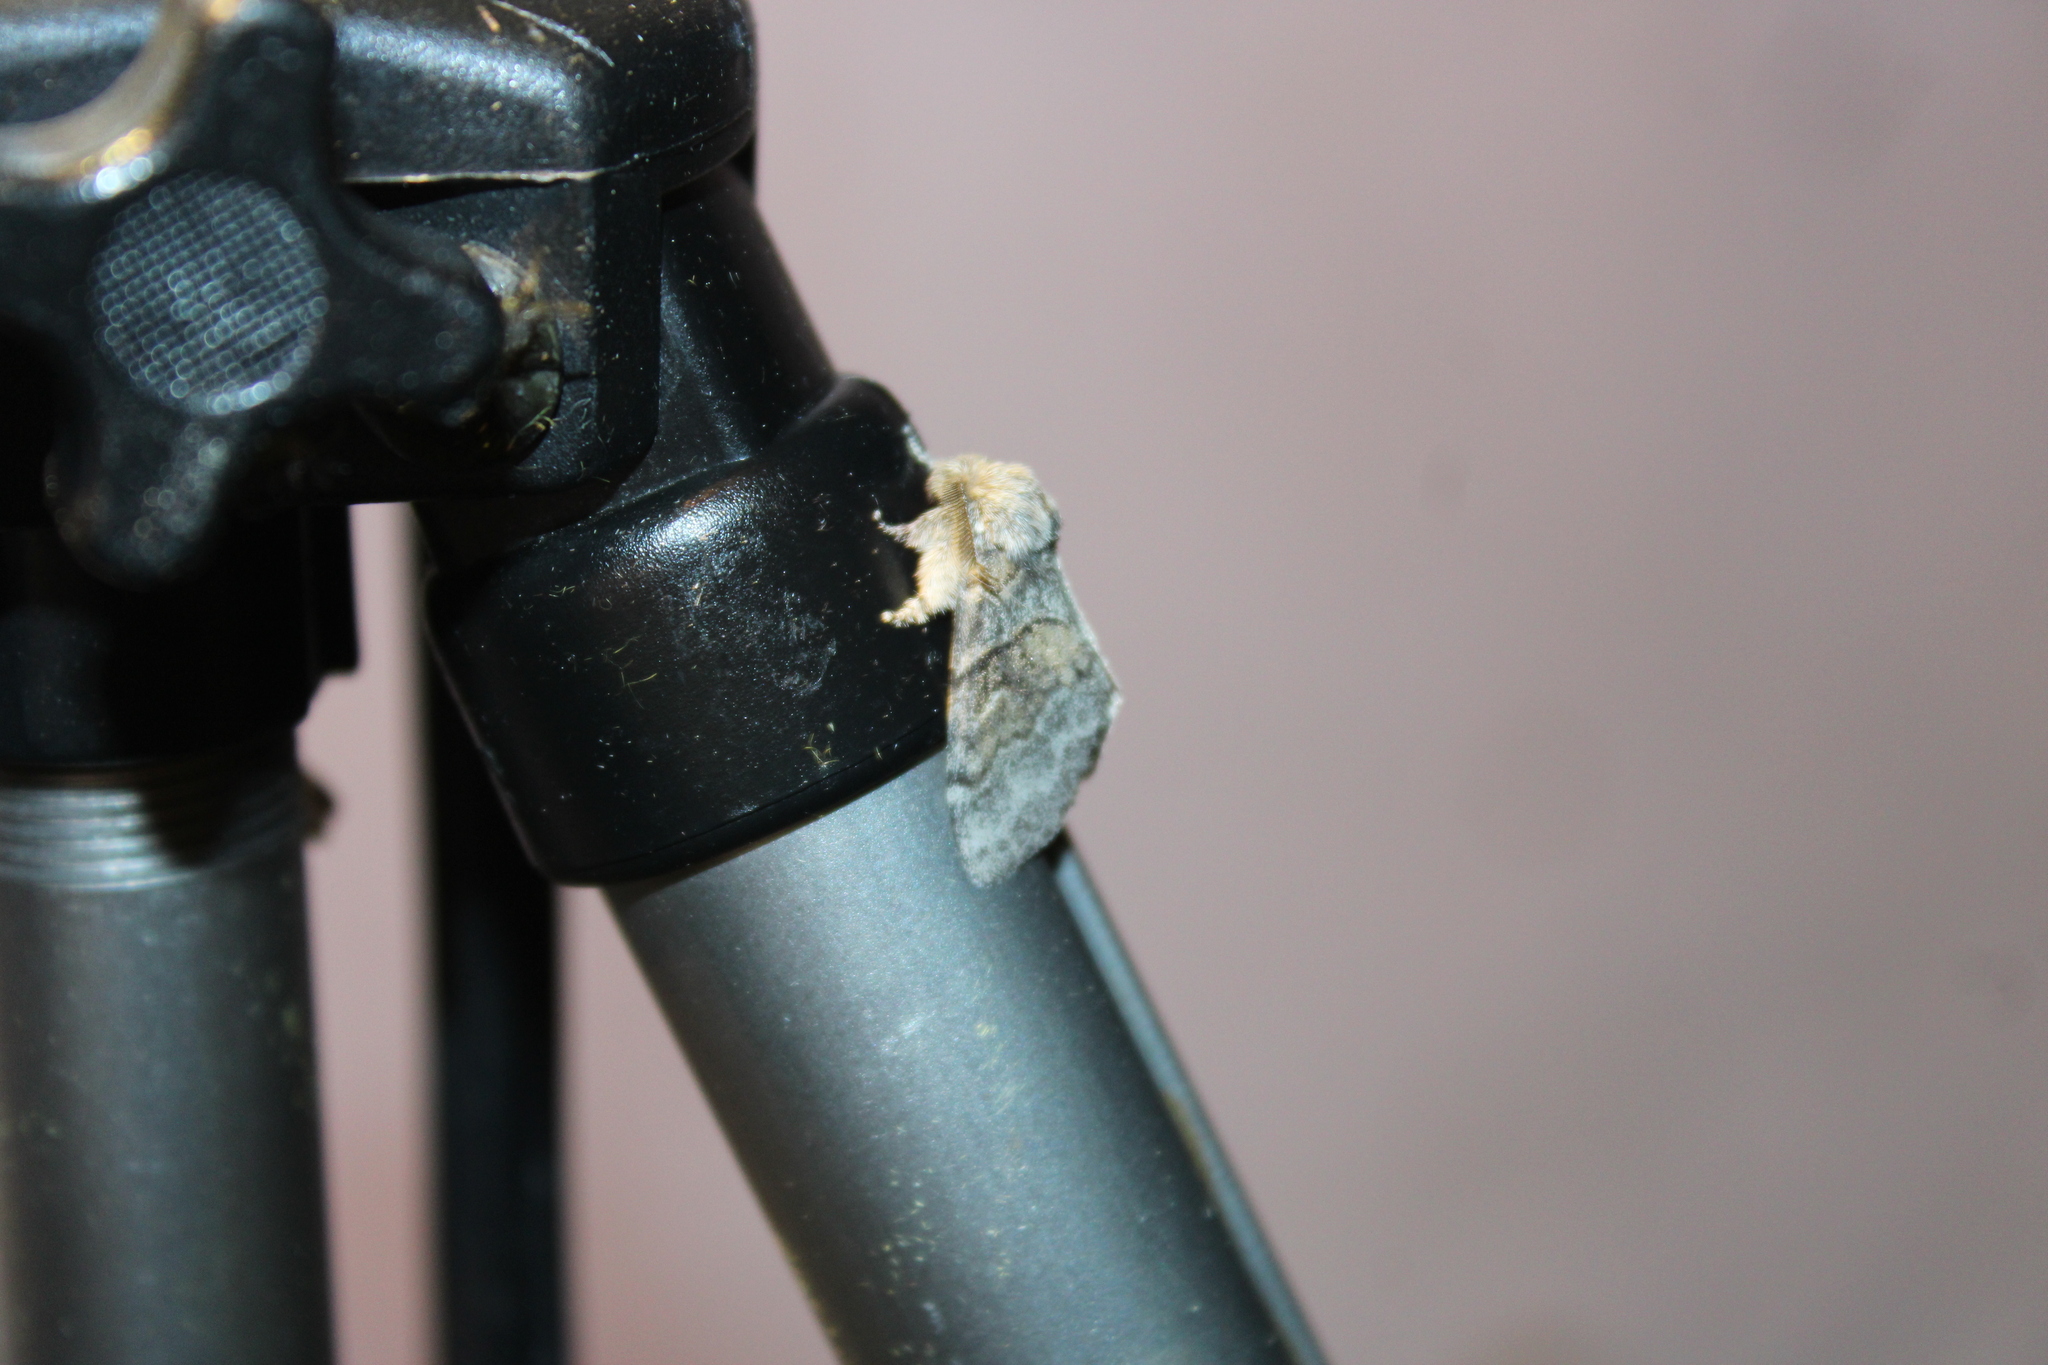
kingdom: Animalia
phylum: Arthropoda
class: Insecta
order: Lepidoptera
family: Notodontidae
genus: Gluphisia
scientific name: Gluphisia septentrionis
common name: Common gluphisia
